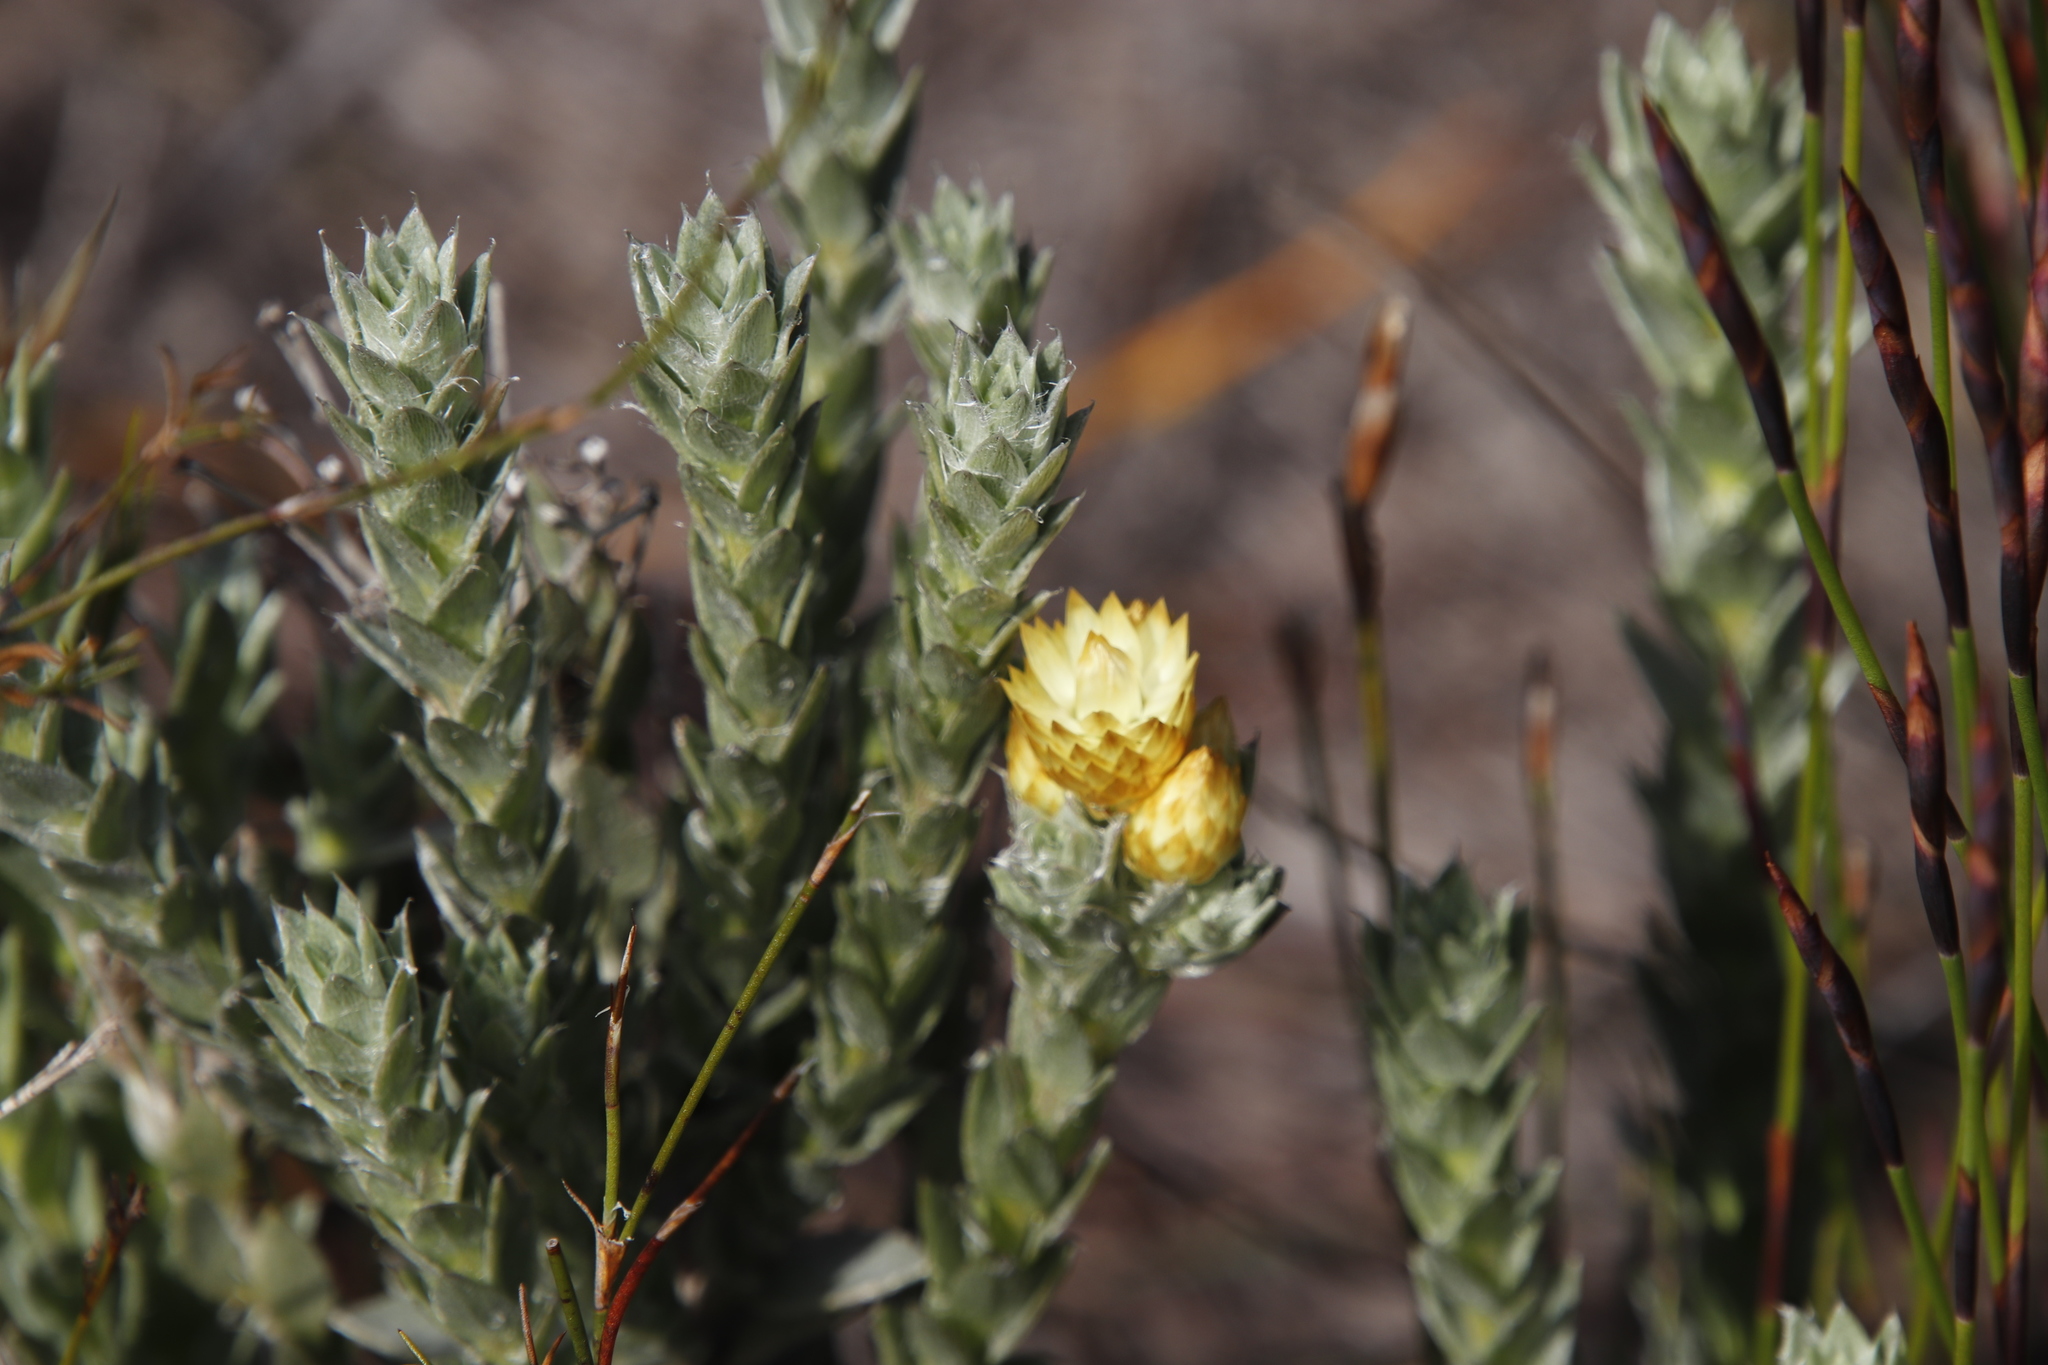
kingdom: Plantae
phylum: Tracheophyta
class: Magnoliopsida
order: Asterales
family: Asteraceae
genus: Achyranthemum
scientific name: Achyranthemum mucronatum
